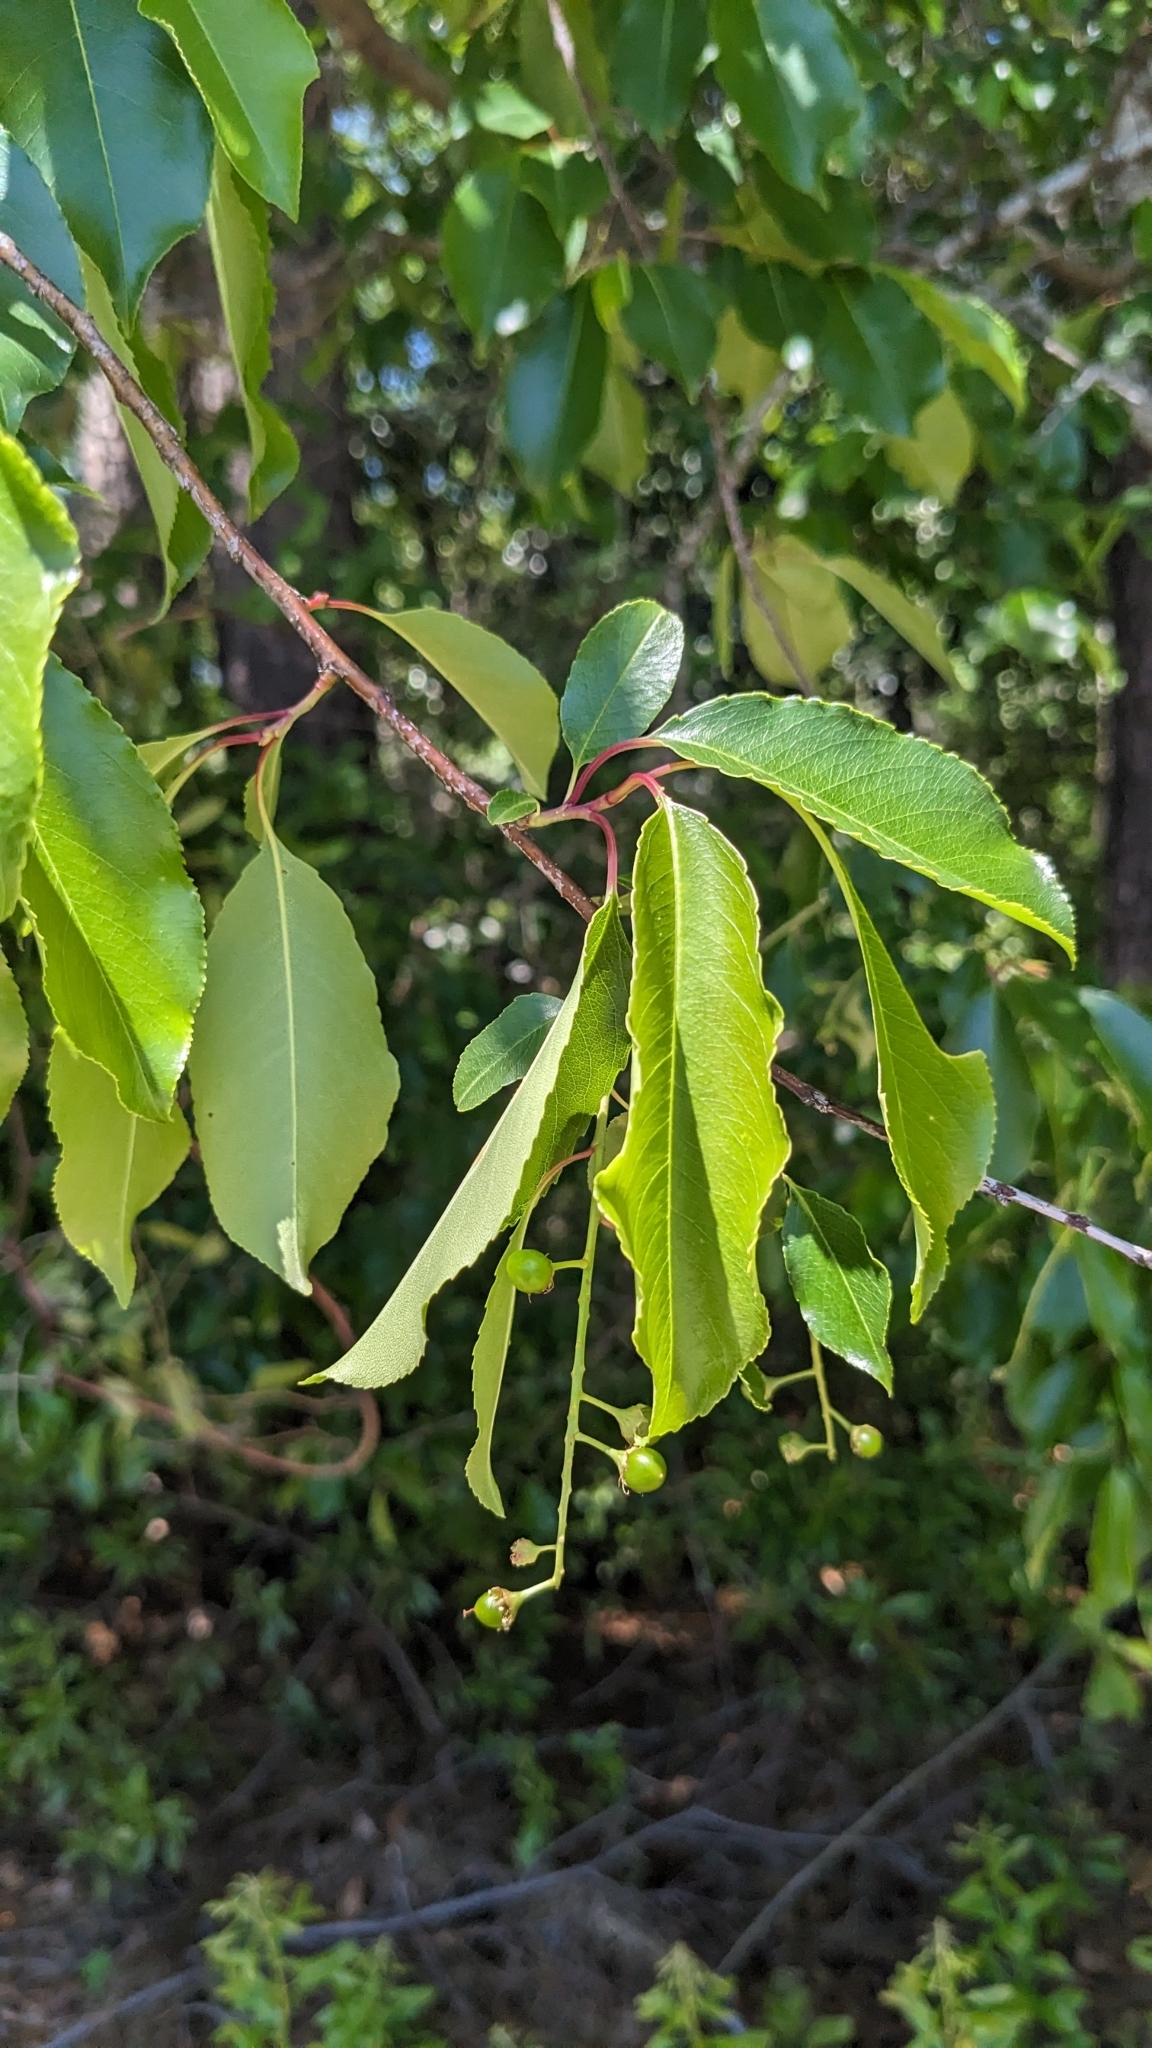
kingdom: Plantae
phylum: Tracheophyta
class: Magnoliopsida
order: Rosales
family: Rosaceae
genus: Prunus
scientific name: Prunus serotina
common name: Black cherry
